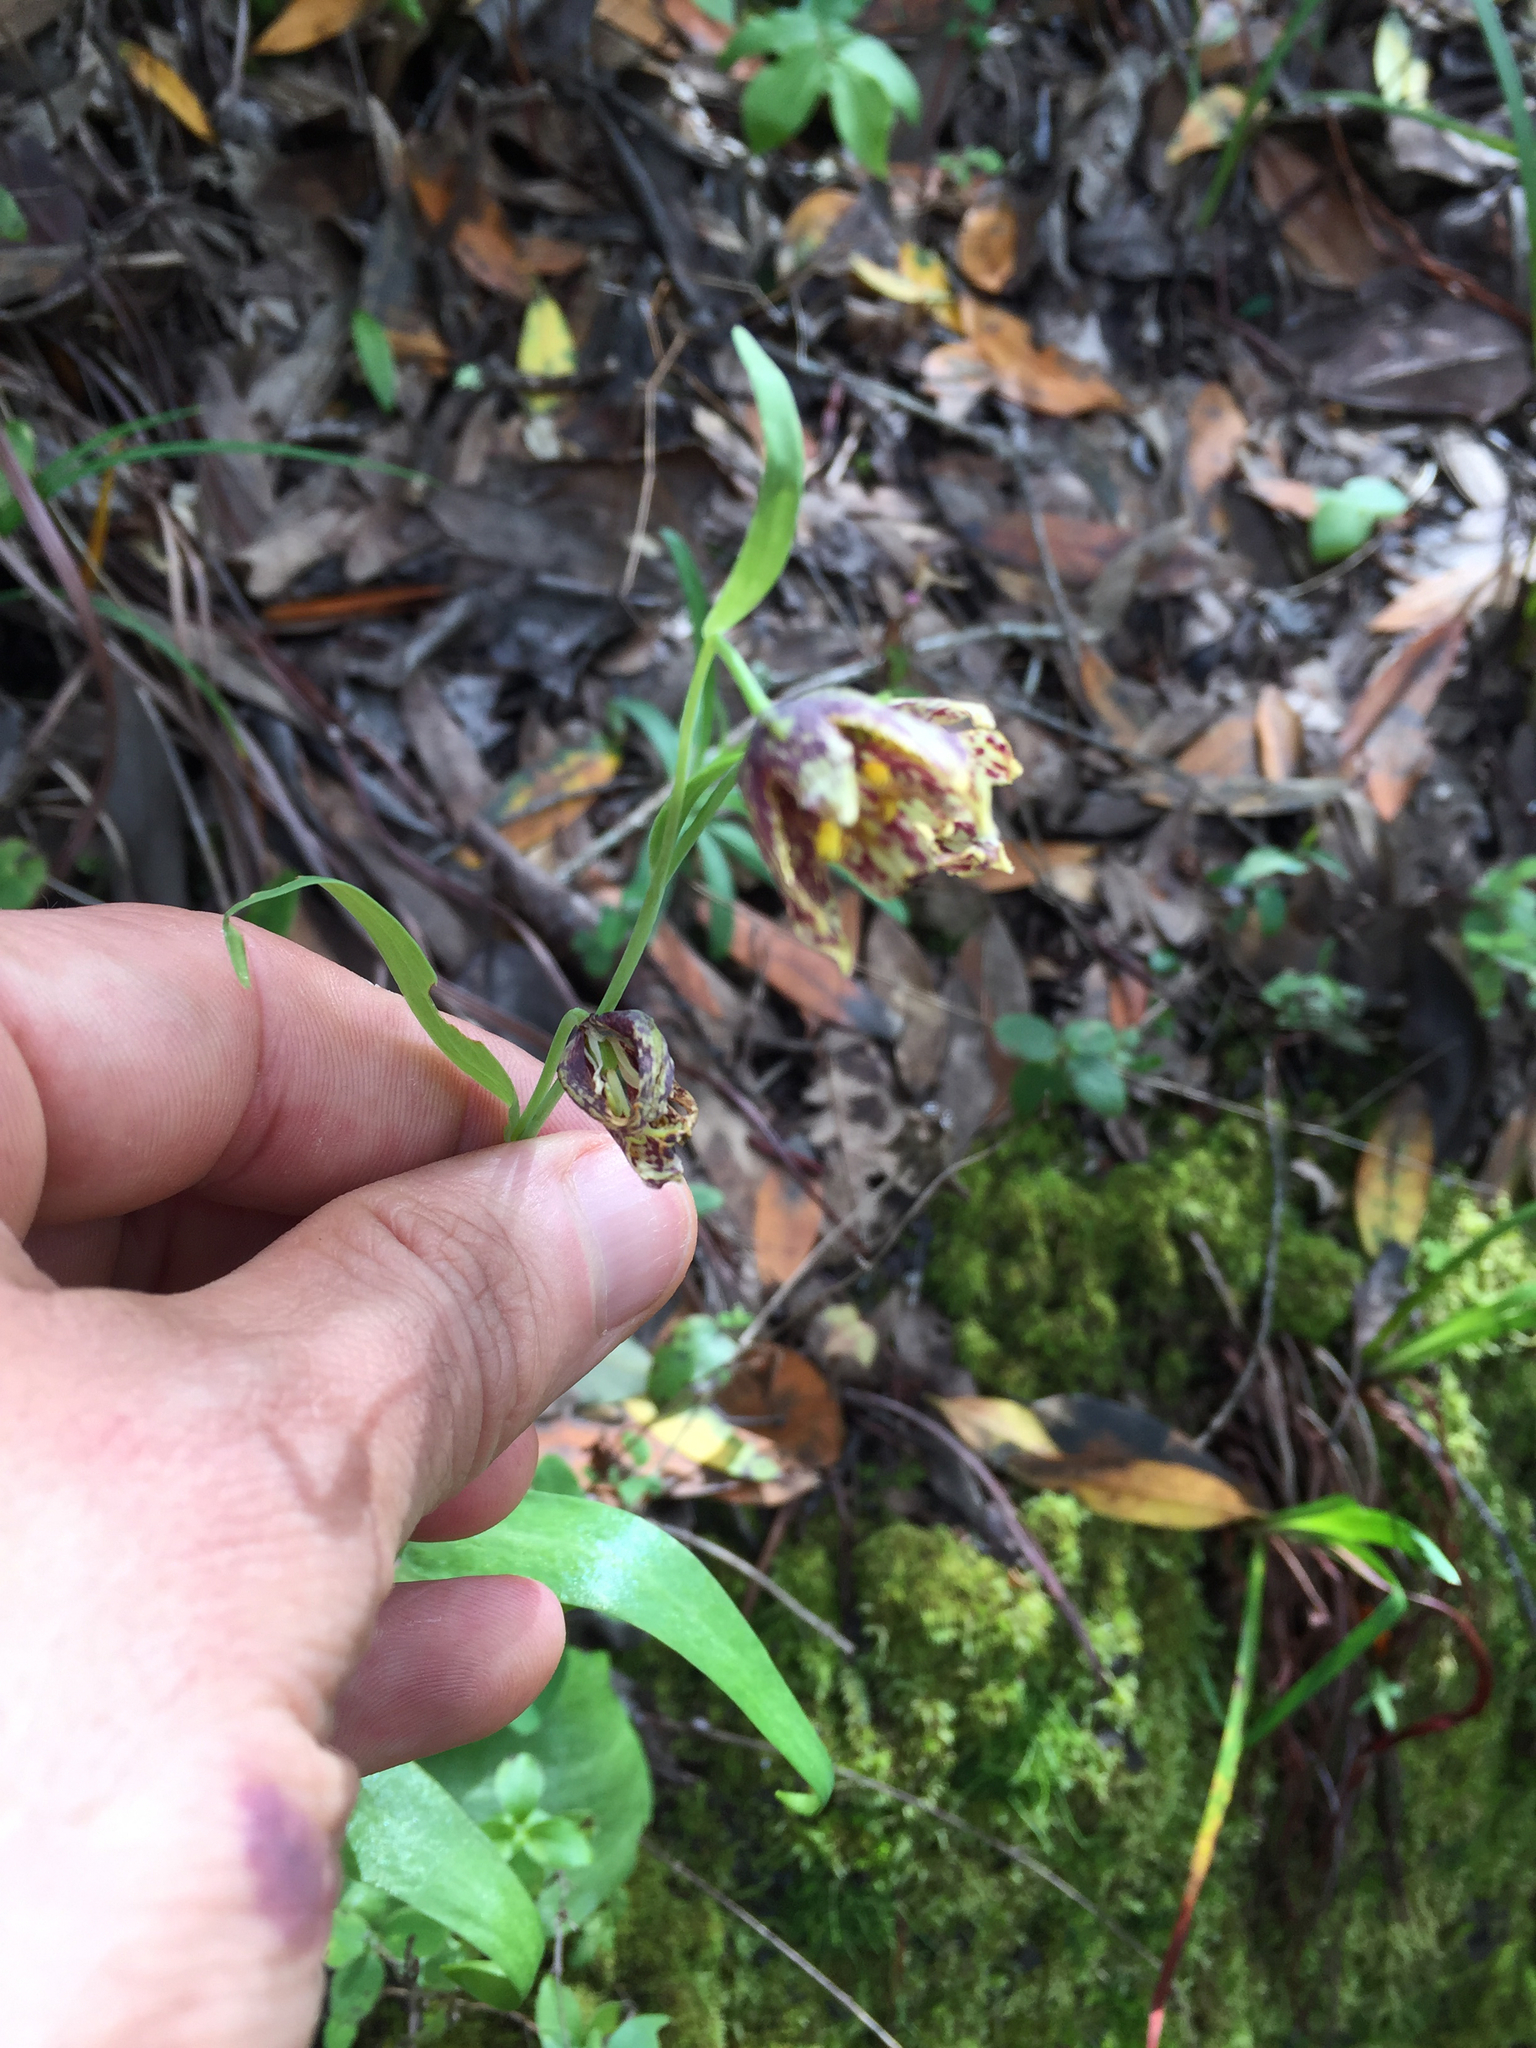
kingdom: Plantae
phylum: Tracheophyta
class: Liliopsida
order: Liliales
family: Liliaceae
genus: Fritillaria
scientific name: Fritillaria affinis
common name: Ojai fritillary
